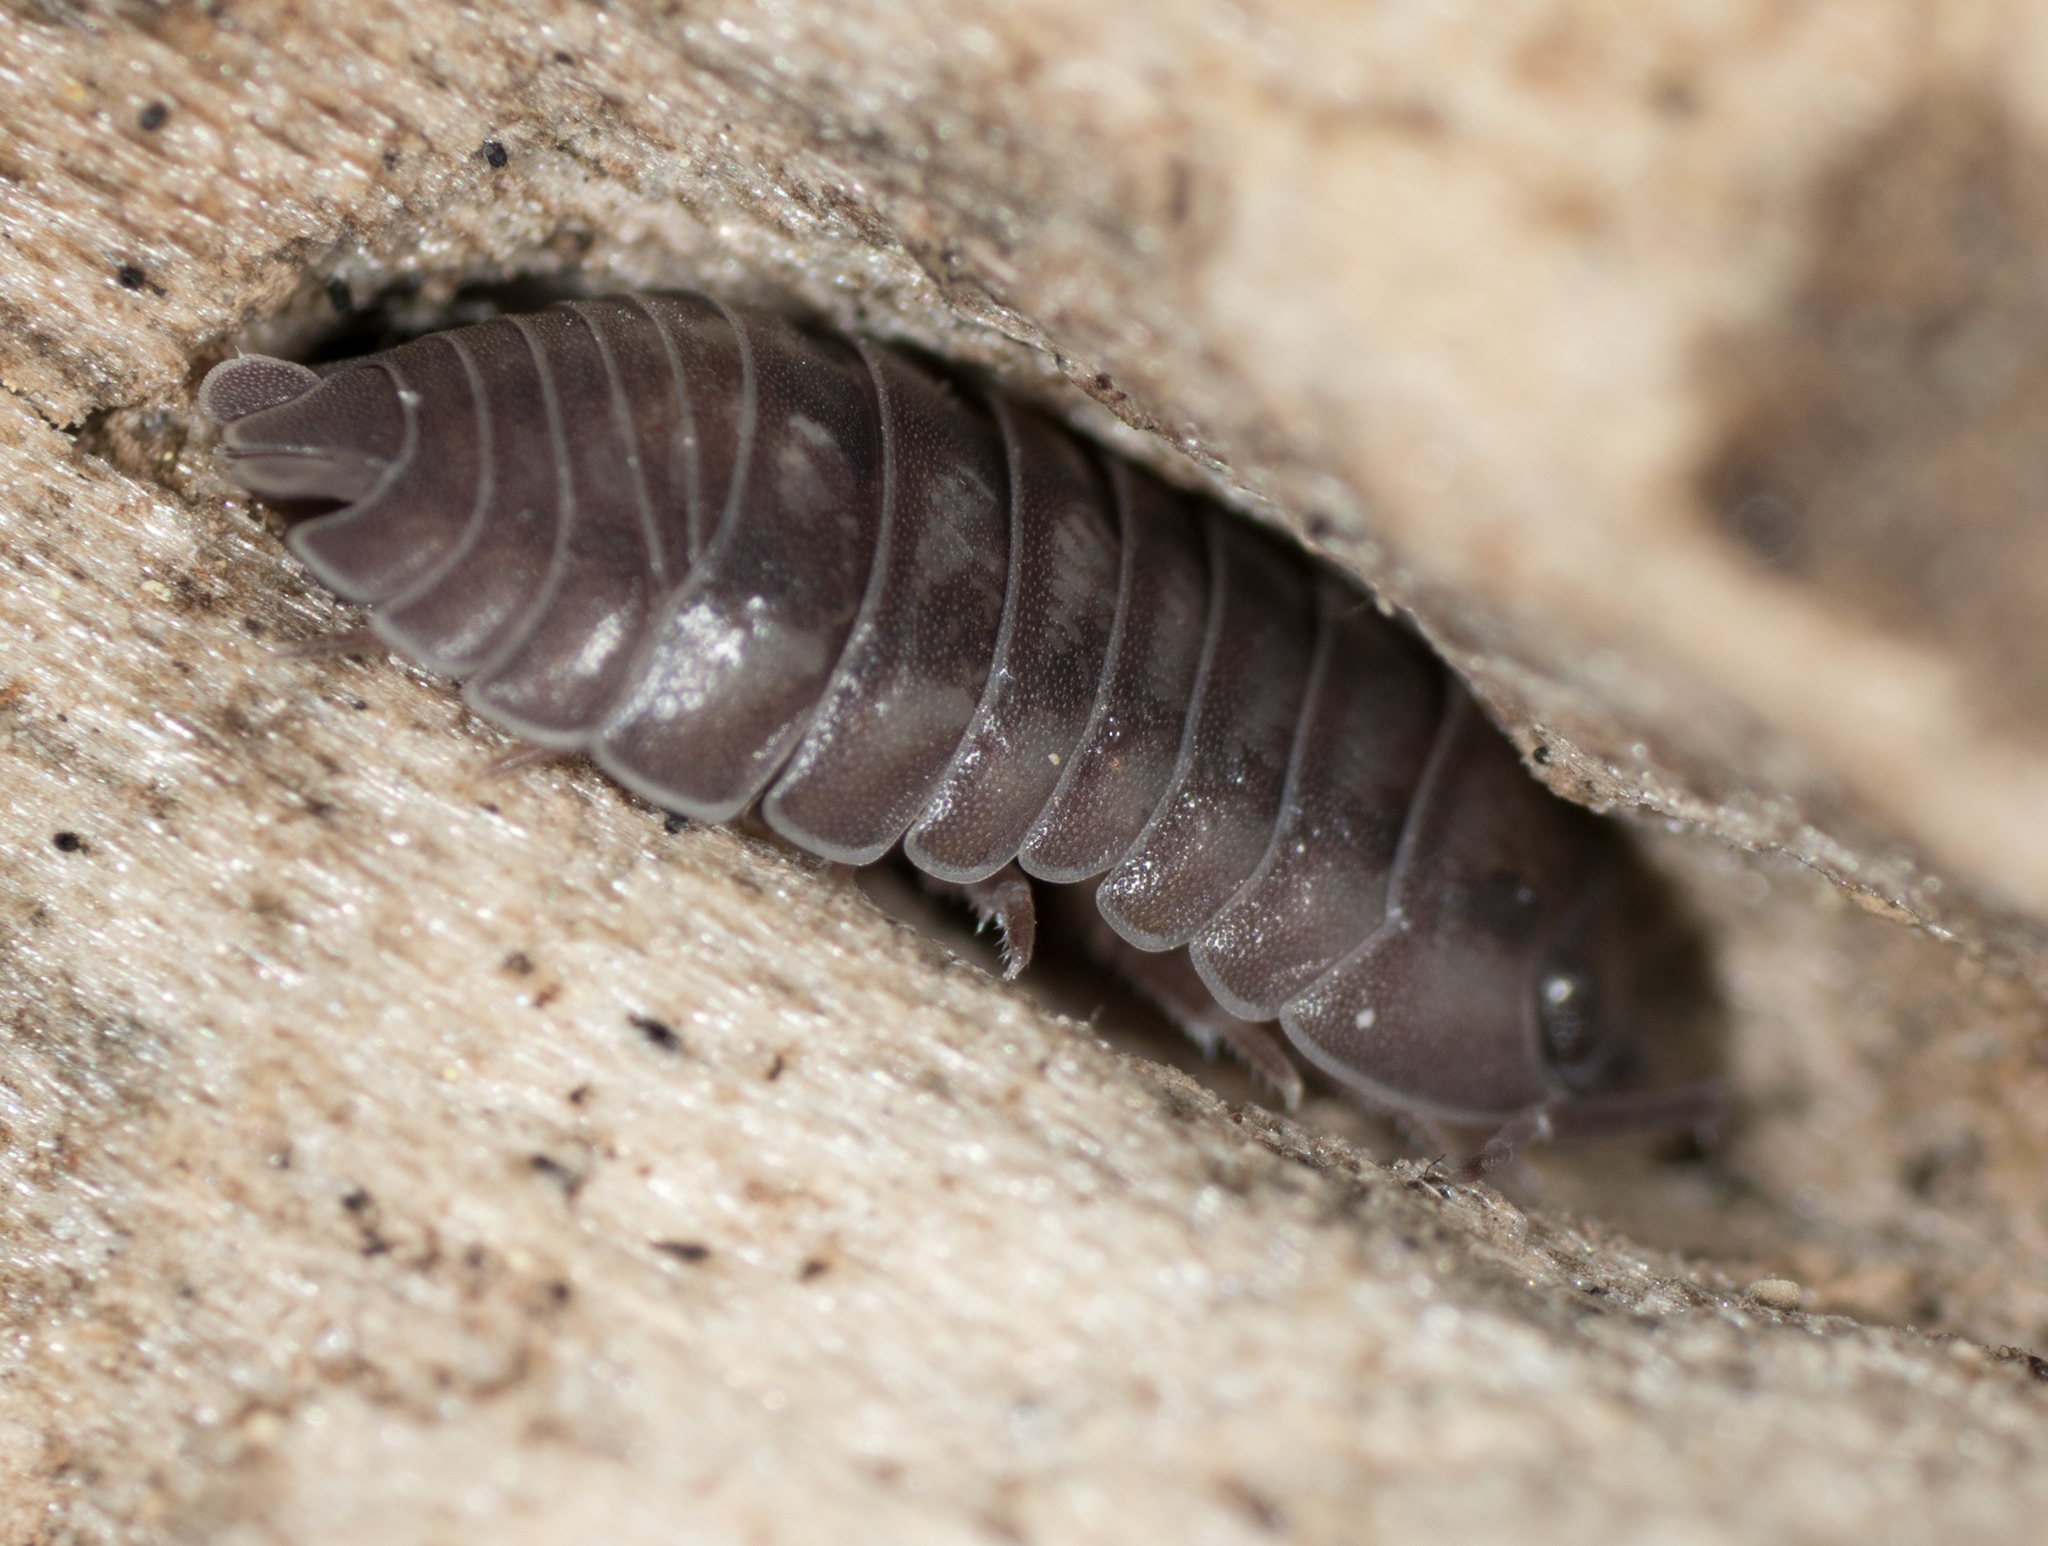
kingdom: Animalia
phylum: Arthropoda
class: Malacostraca
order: Isopoda
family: Armadillidiidae
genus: Armadillidium
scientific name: Armadillidium nasatum
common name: Isopod
